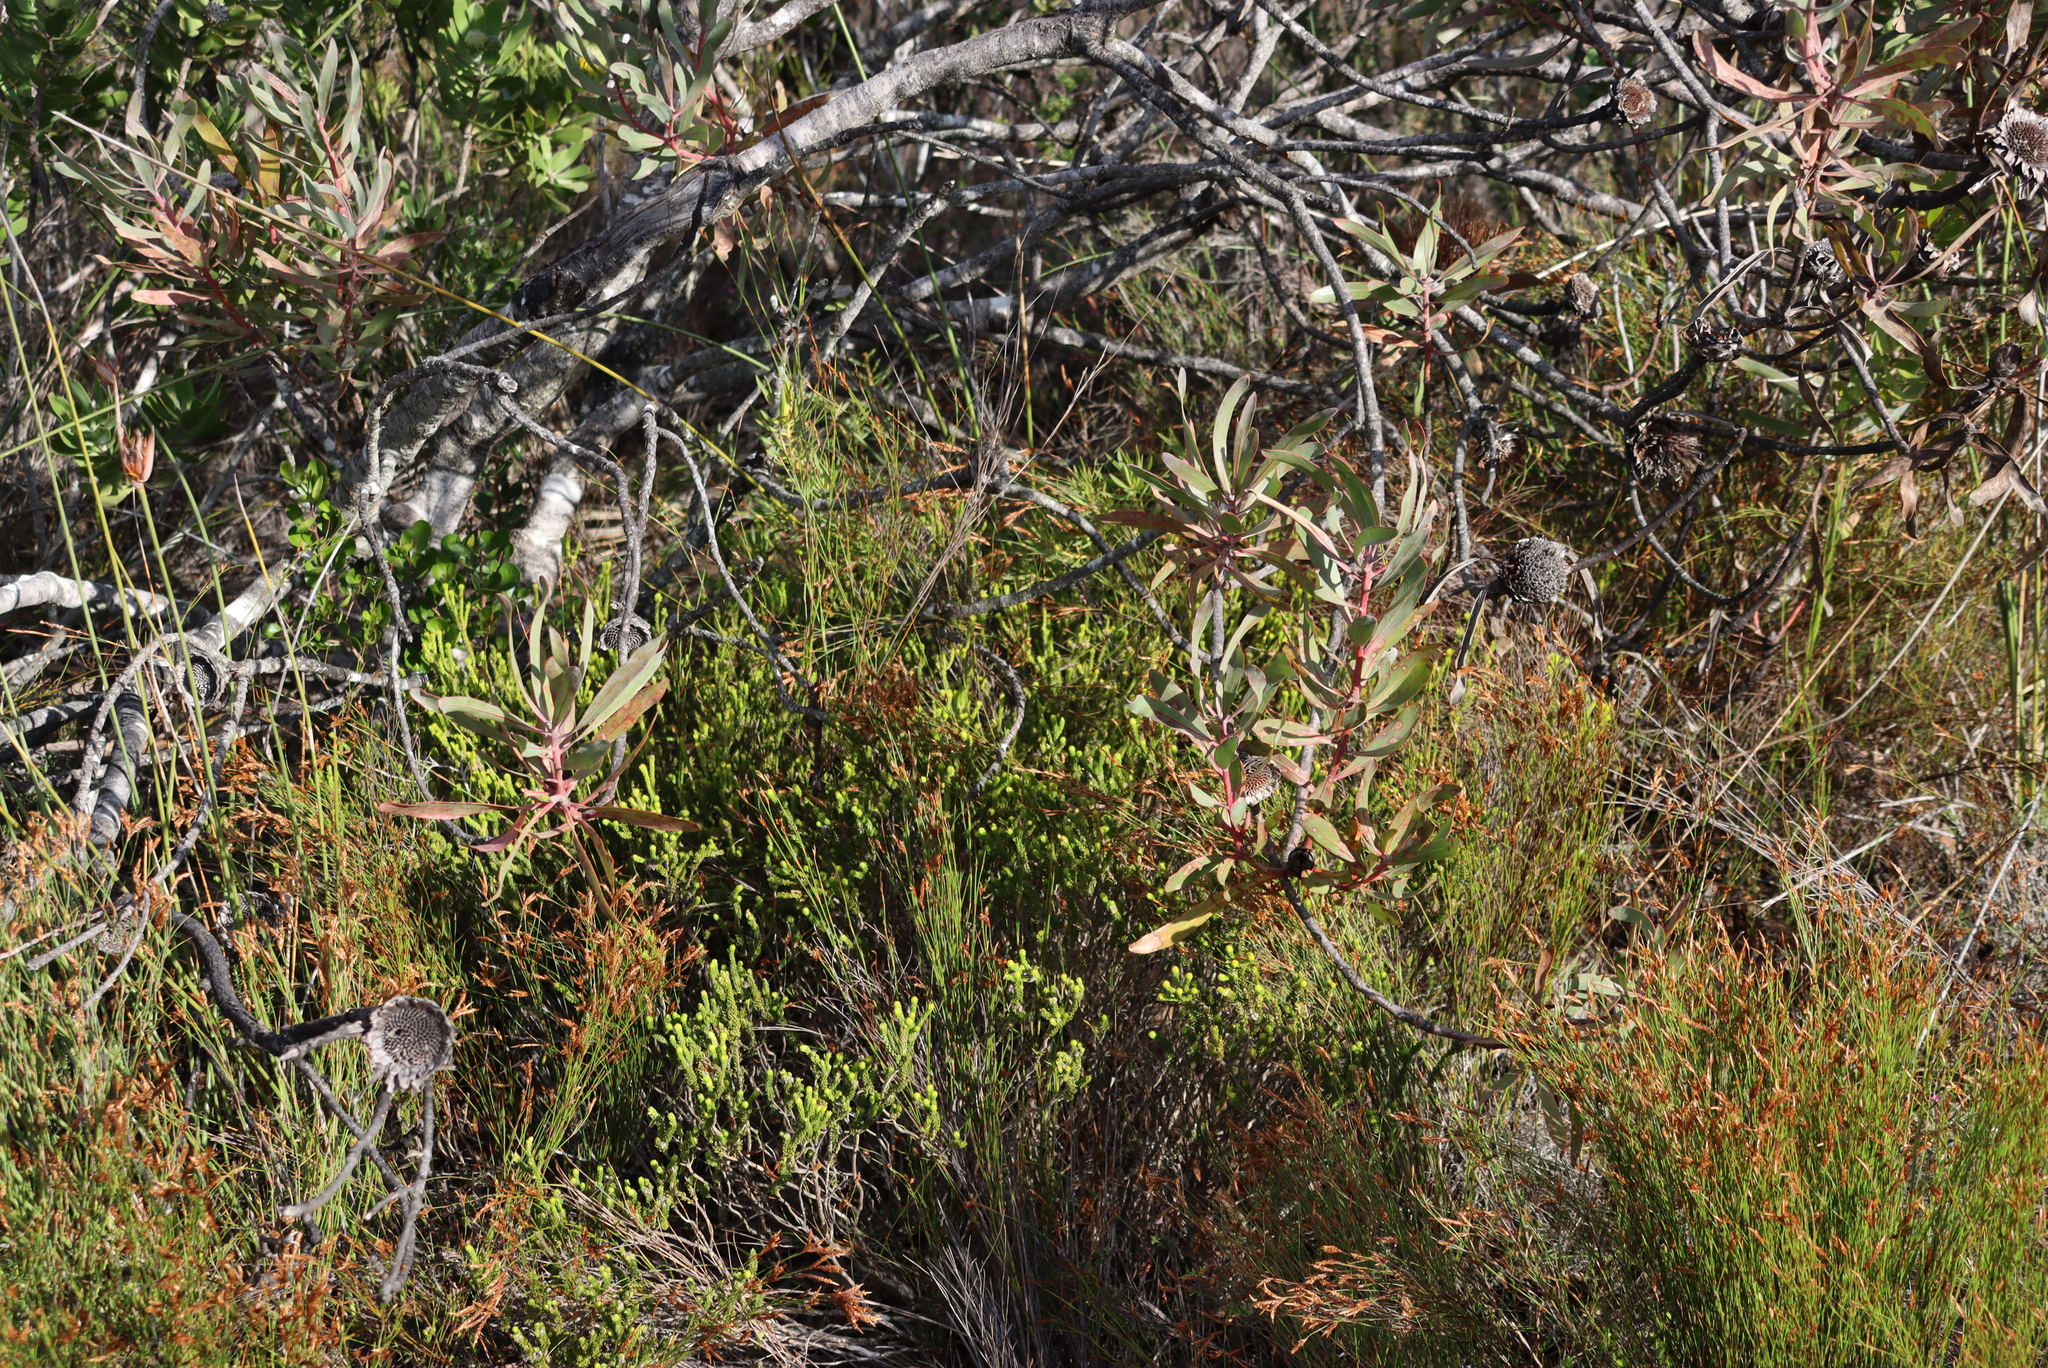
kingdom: Plantae
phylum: Tracheophyta
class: Magnoliopsida
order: Proteales
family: Proteaceae
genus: Protea
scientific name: Protea susannae
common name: Foetid-leaf sugarbush
